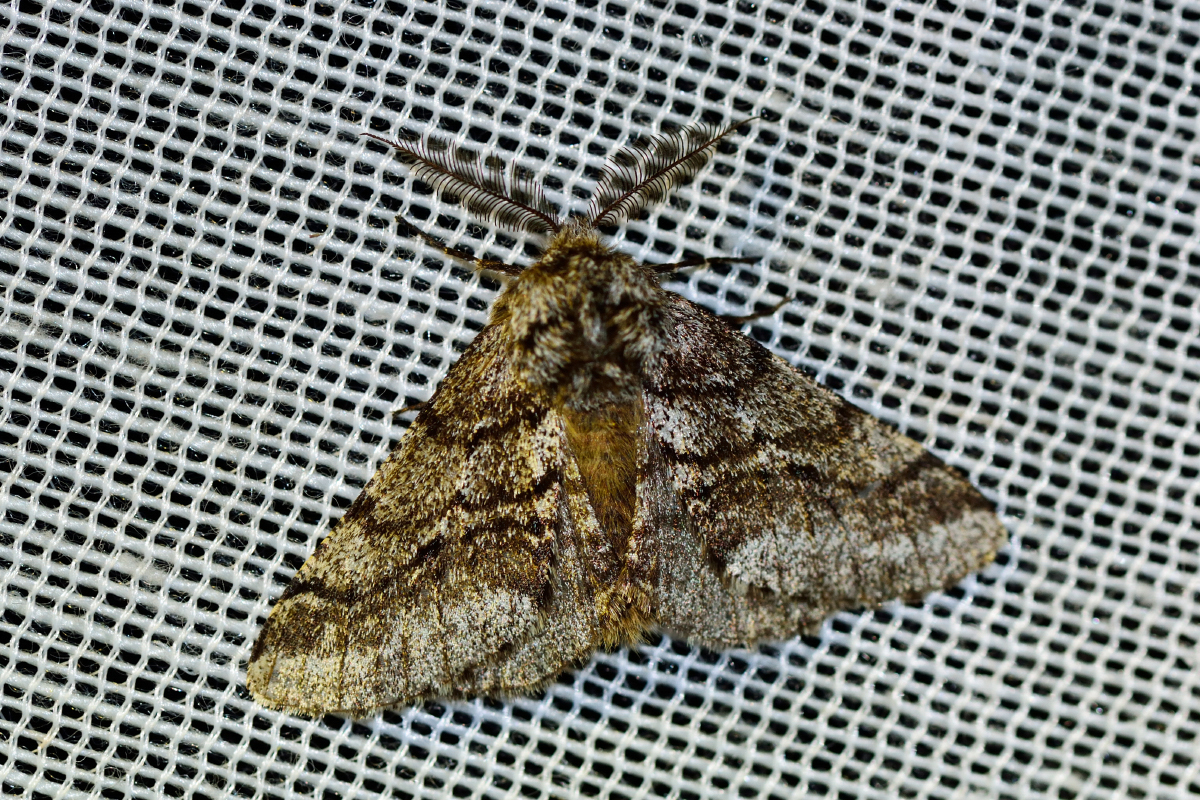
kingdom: Animalia
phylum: Arthropoda
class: Insecta
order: Lepidoptera
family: Geometridae
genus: Lycia
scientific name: Lycia hirtaria
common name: Brindled beauty
